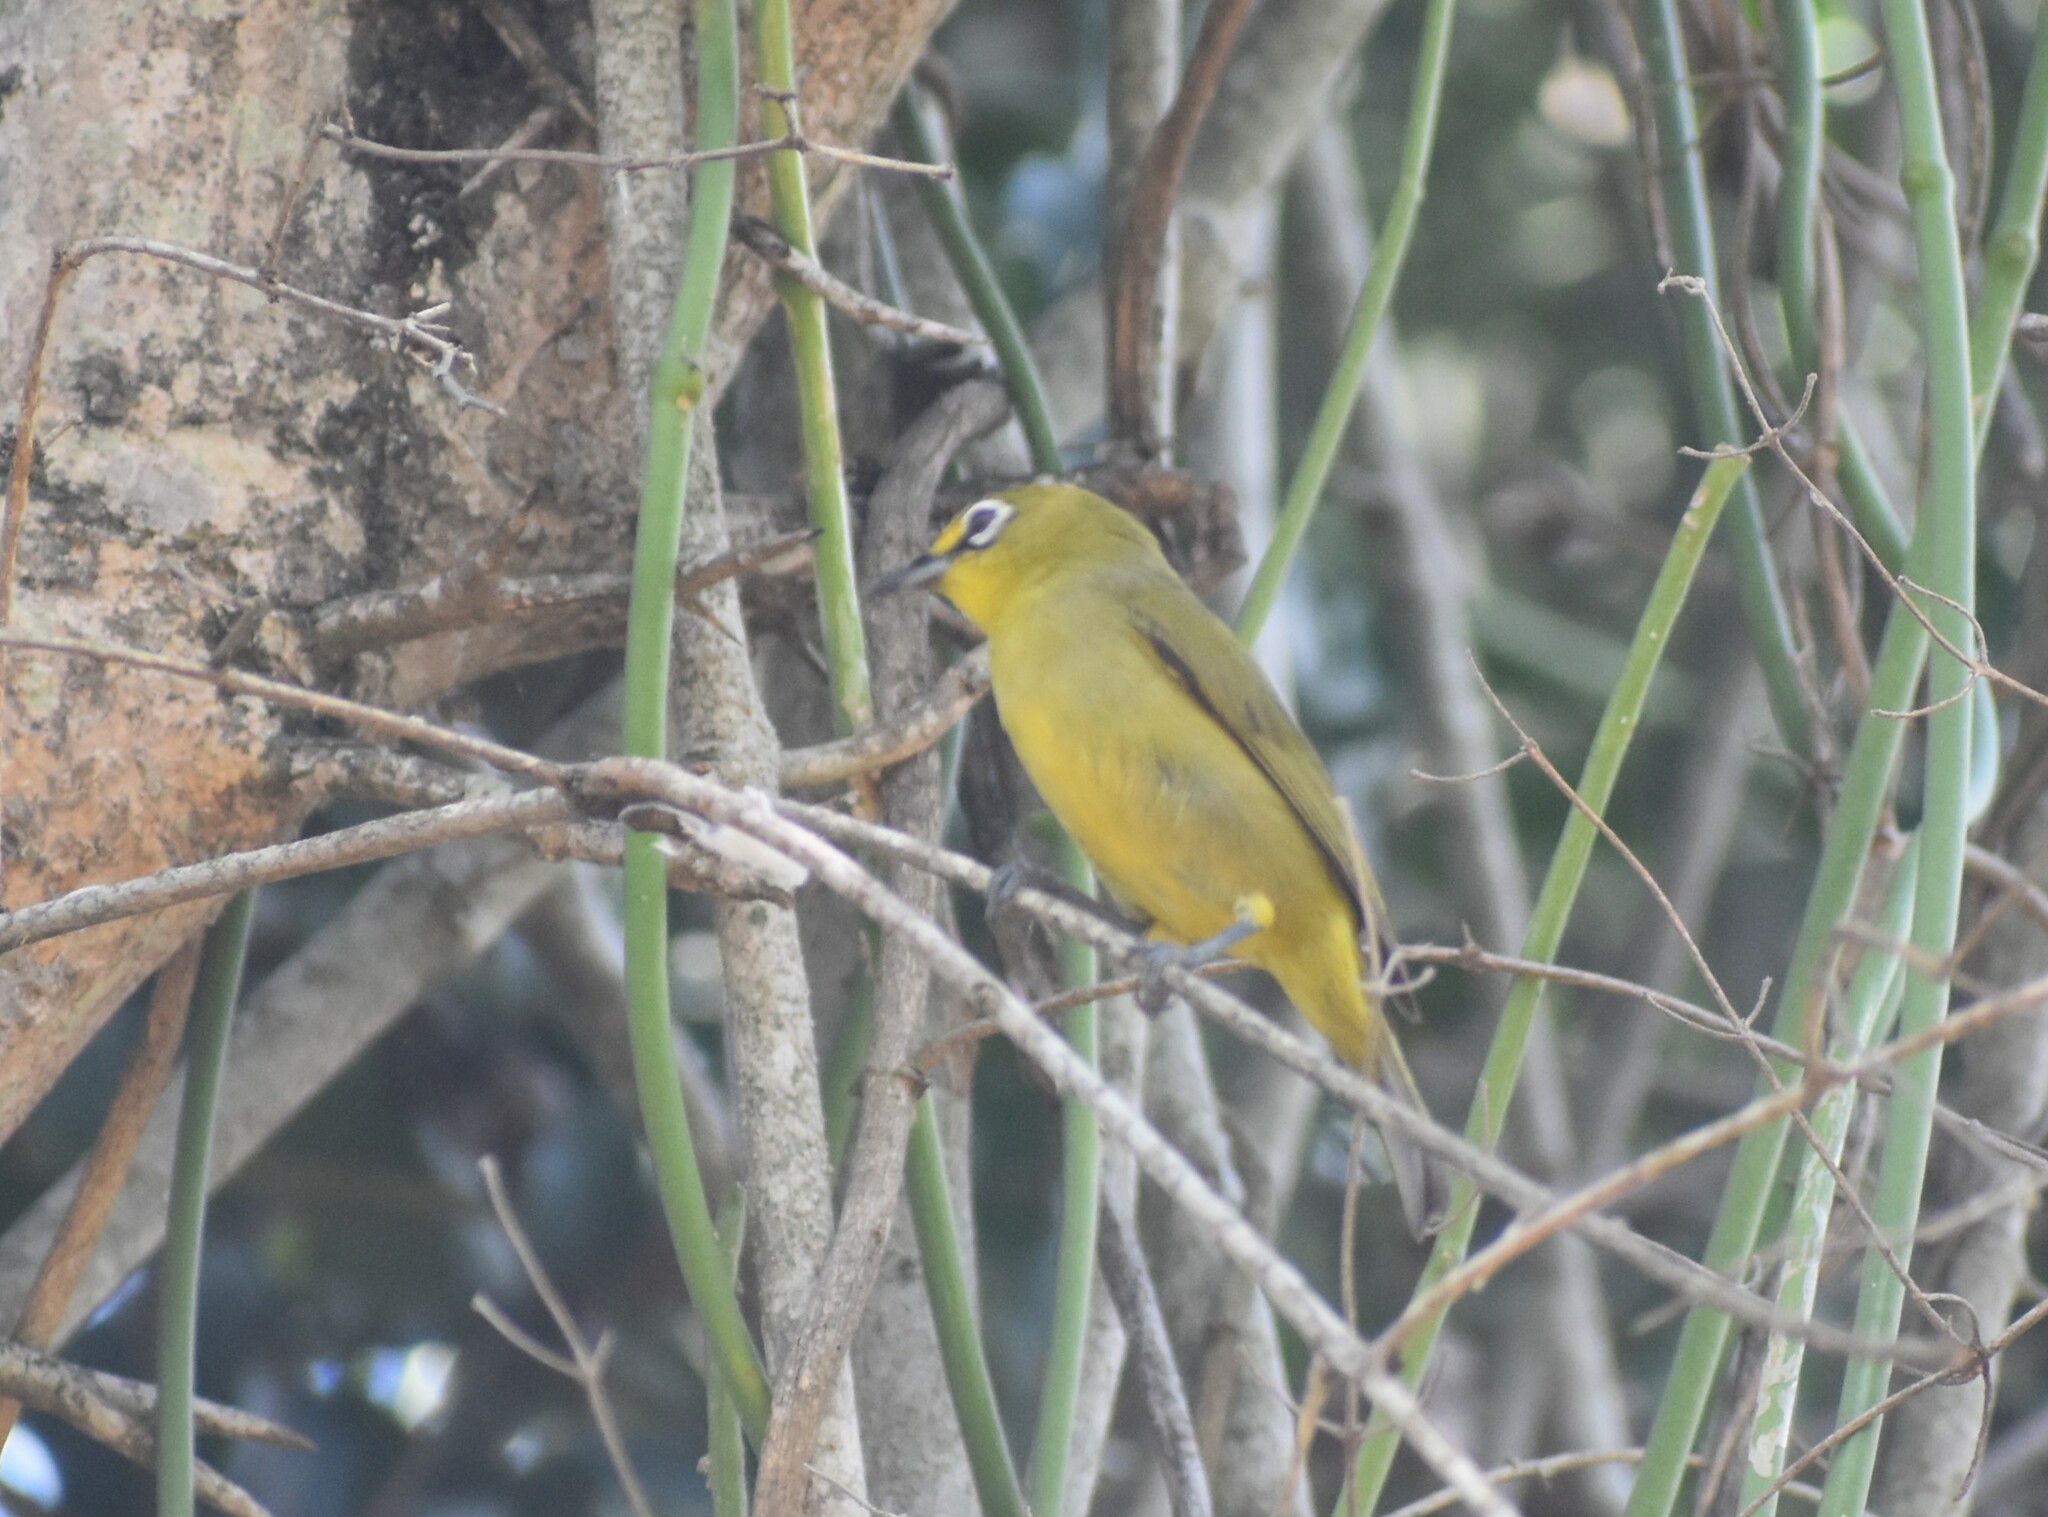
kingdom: Animalia
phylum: Chordata
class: Aves
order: Passeriformes
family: Zosteropidae
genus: Zosterops
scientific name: Zosterops virens
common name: Cape white-eye
